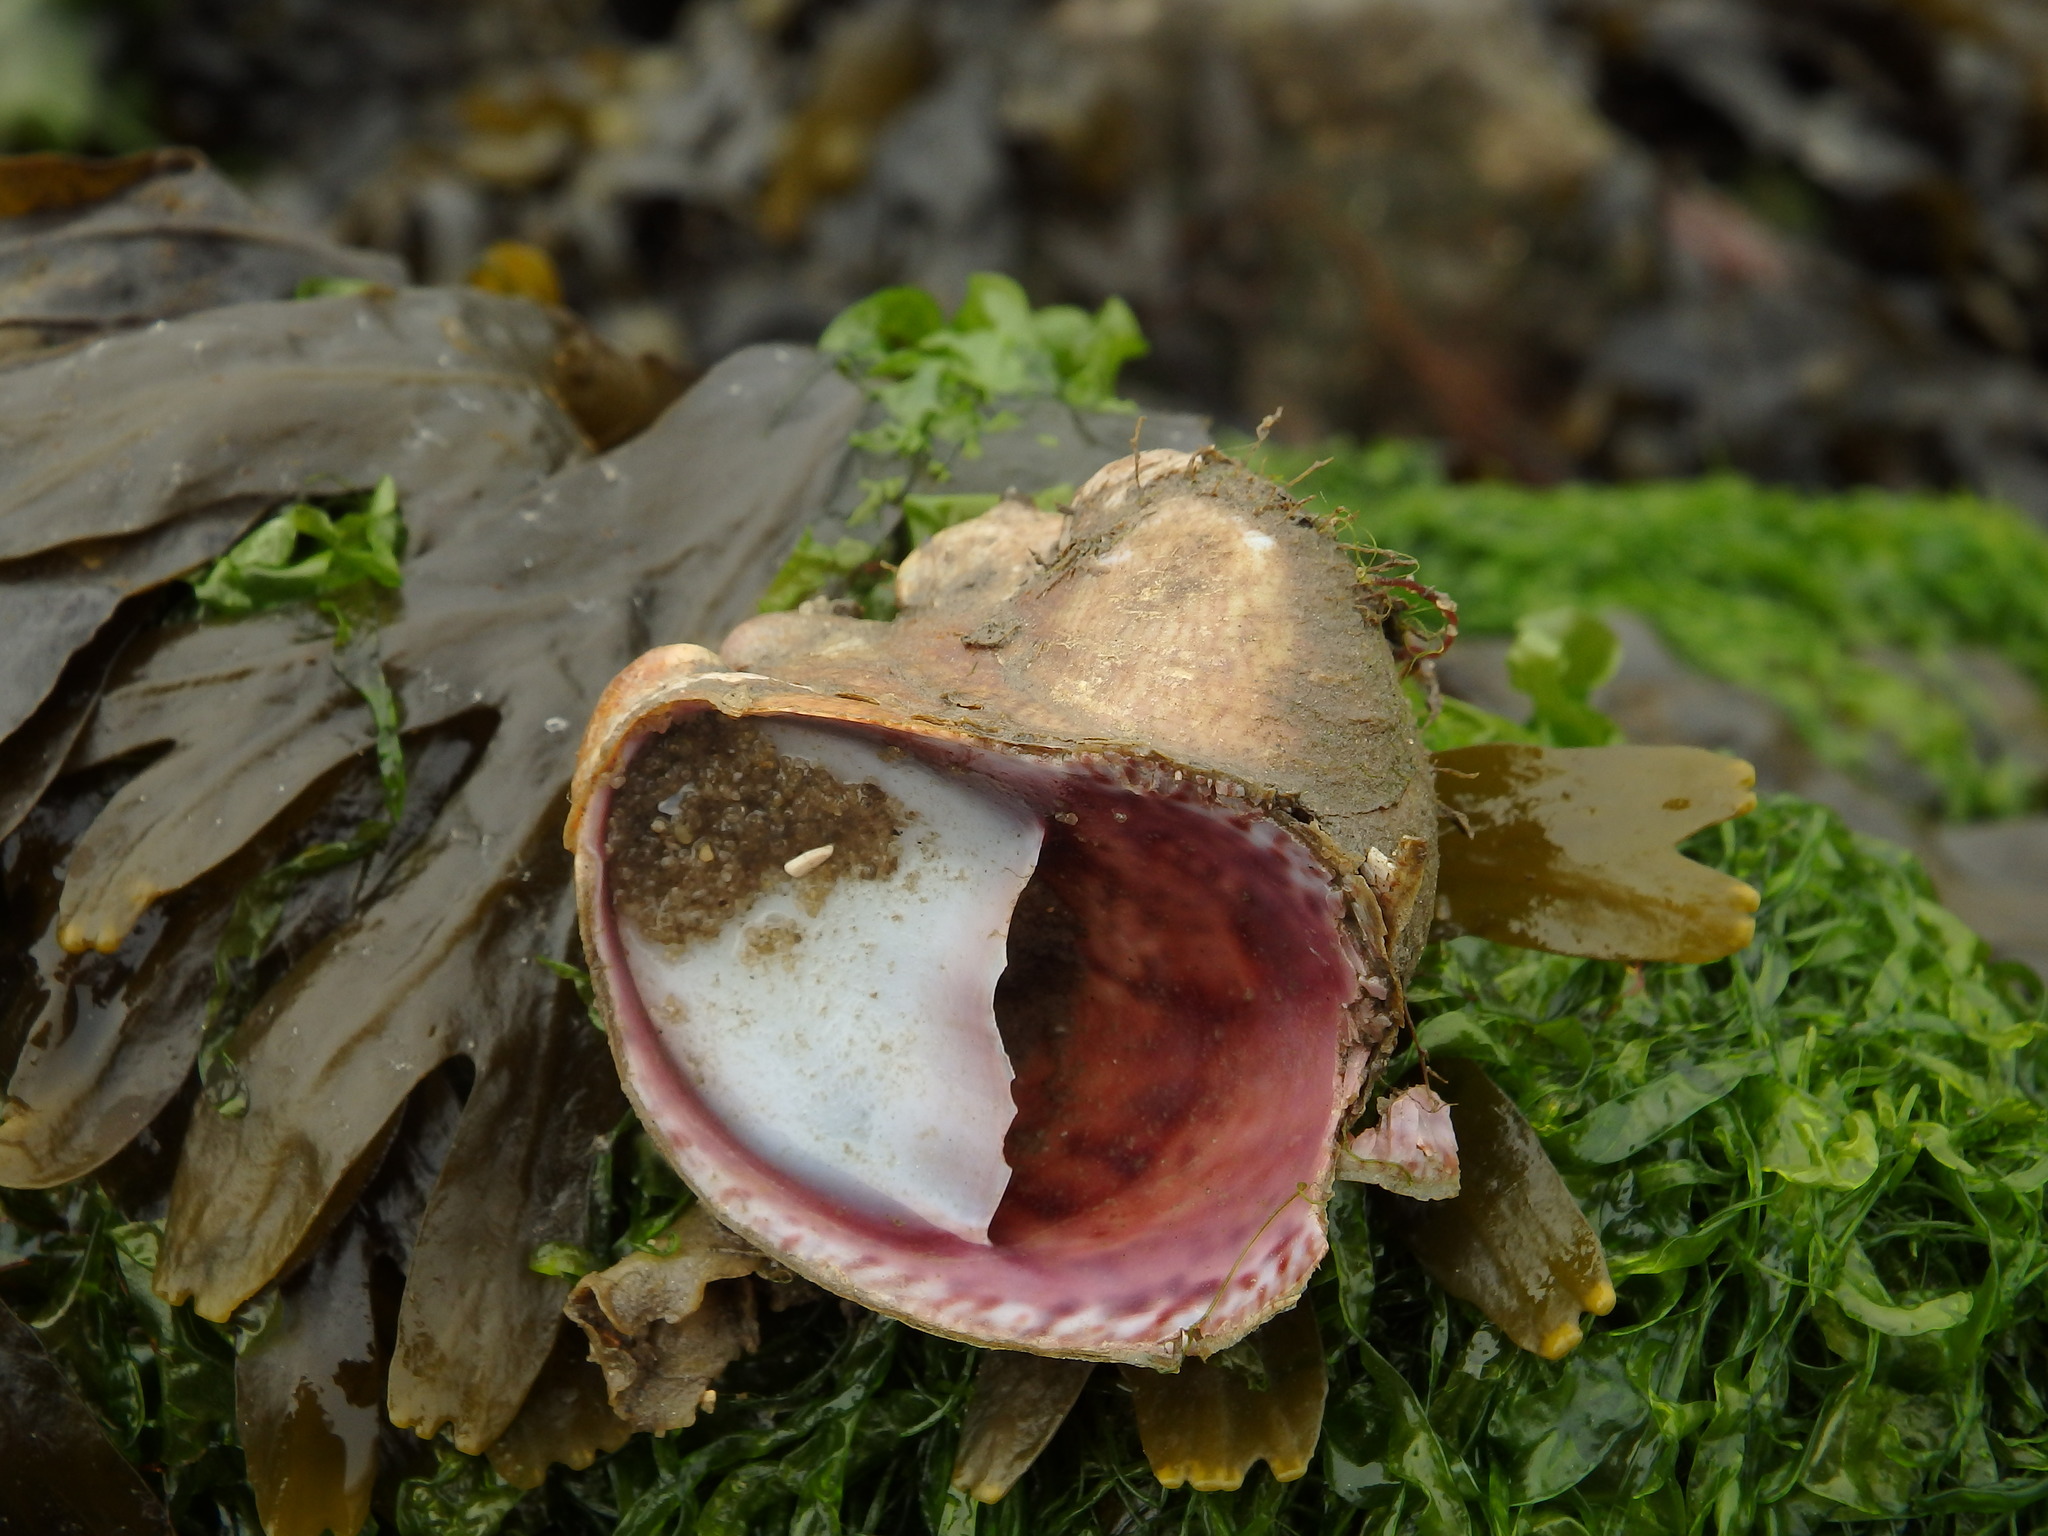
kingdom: Animalia
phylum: Mollusca
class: Gastropoda
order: Littorinimorpha
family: Calyptraeidae
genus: Crepidula
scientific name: Crepidula fornicata
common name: Slipper limpet
